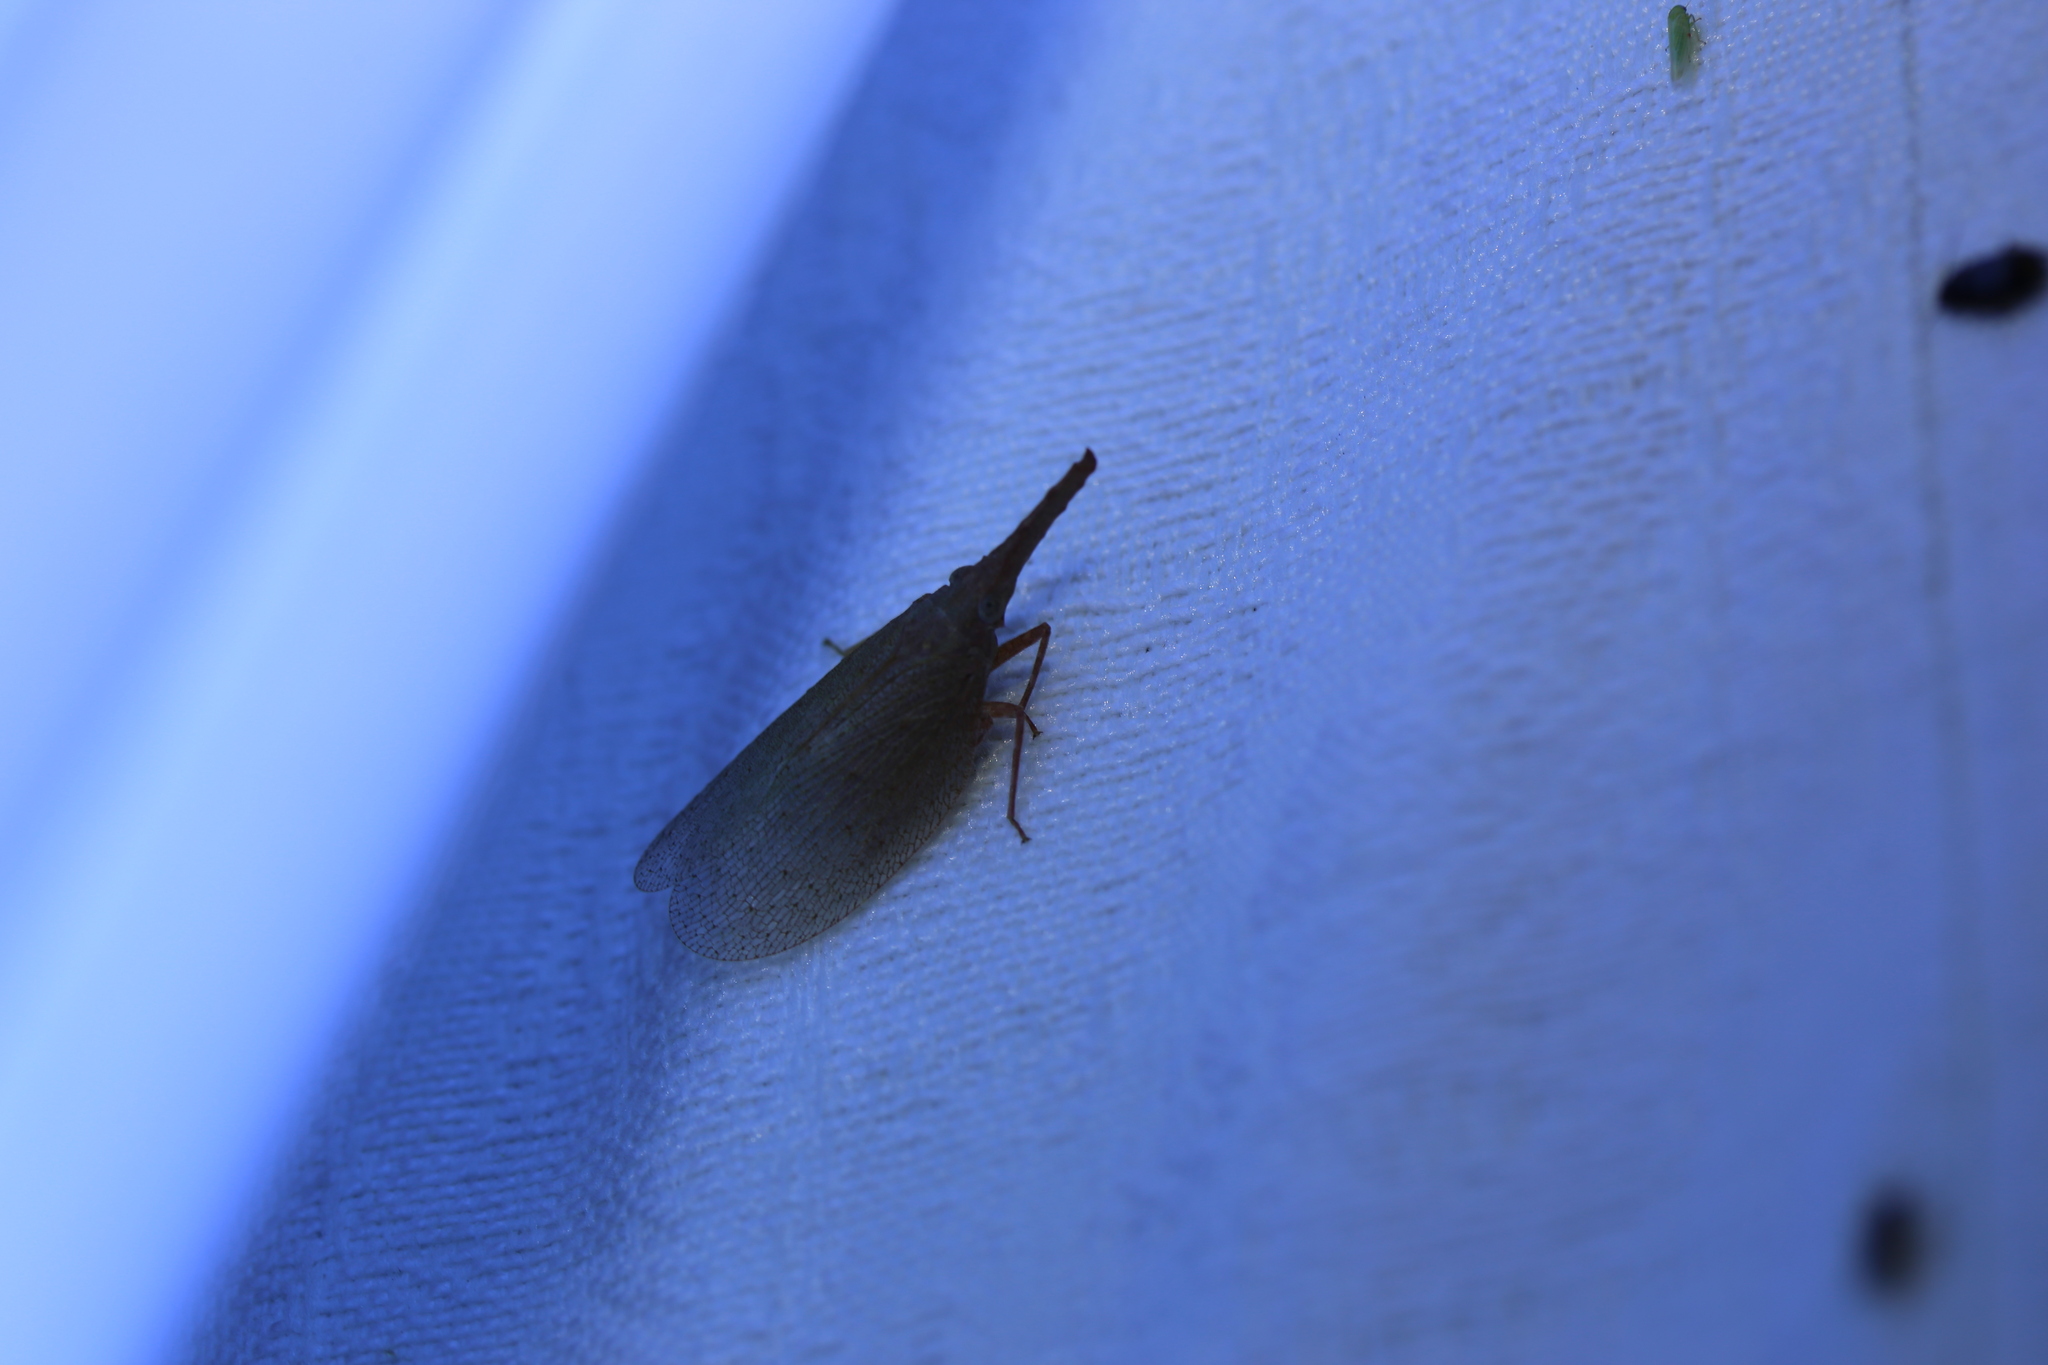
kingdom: Animalia
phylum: Arthropoda
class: Insecta
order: Hemiptera
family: Fulgoridae
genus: Rentinus
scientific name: Rentinus dilatatus
